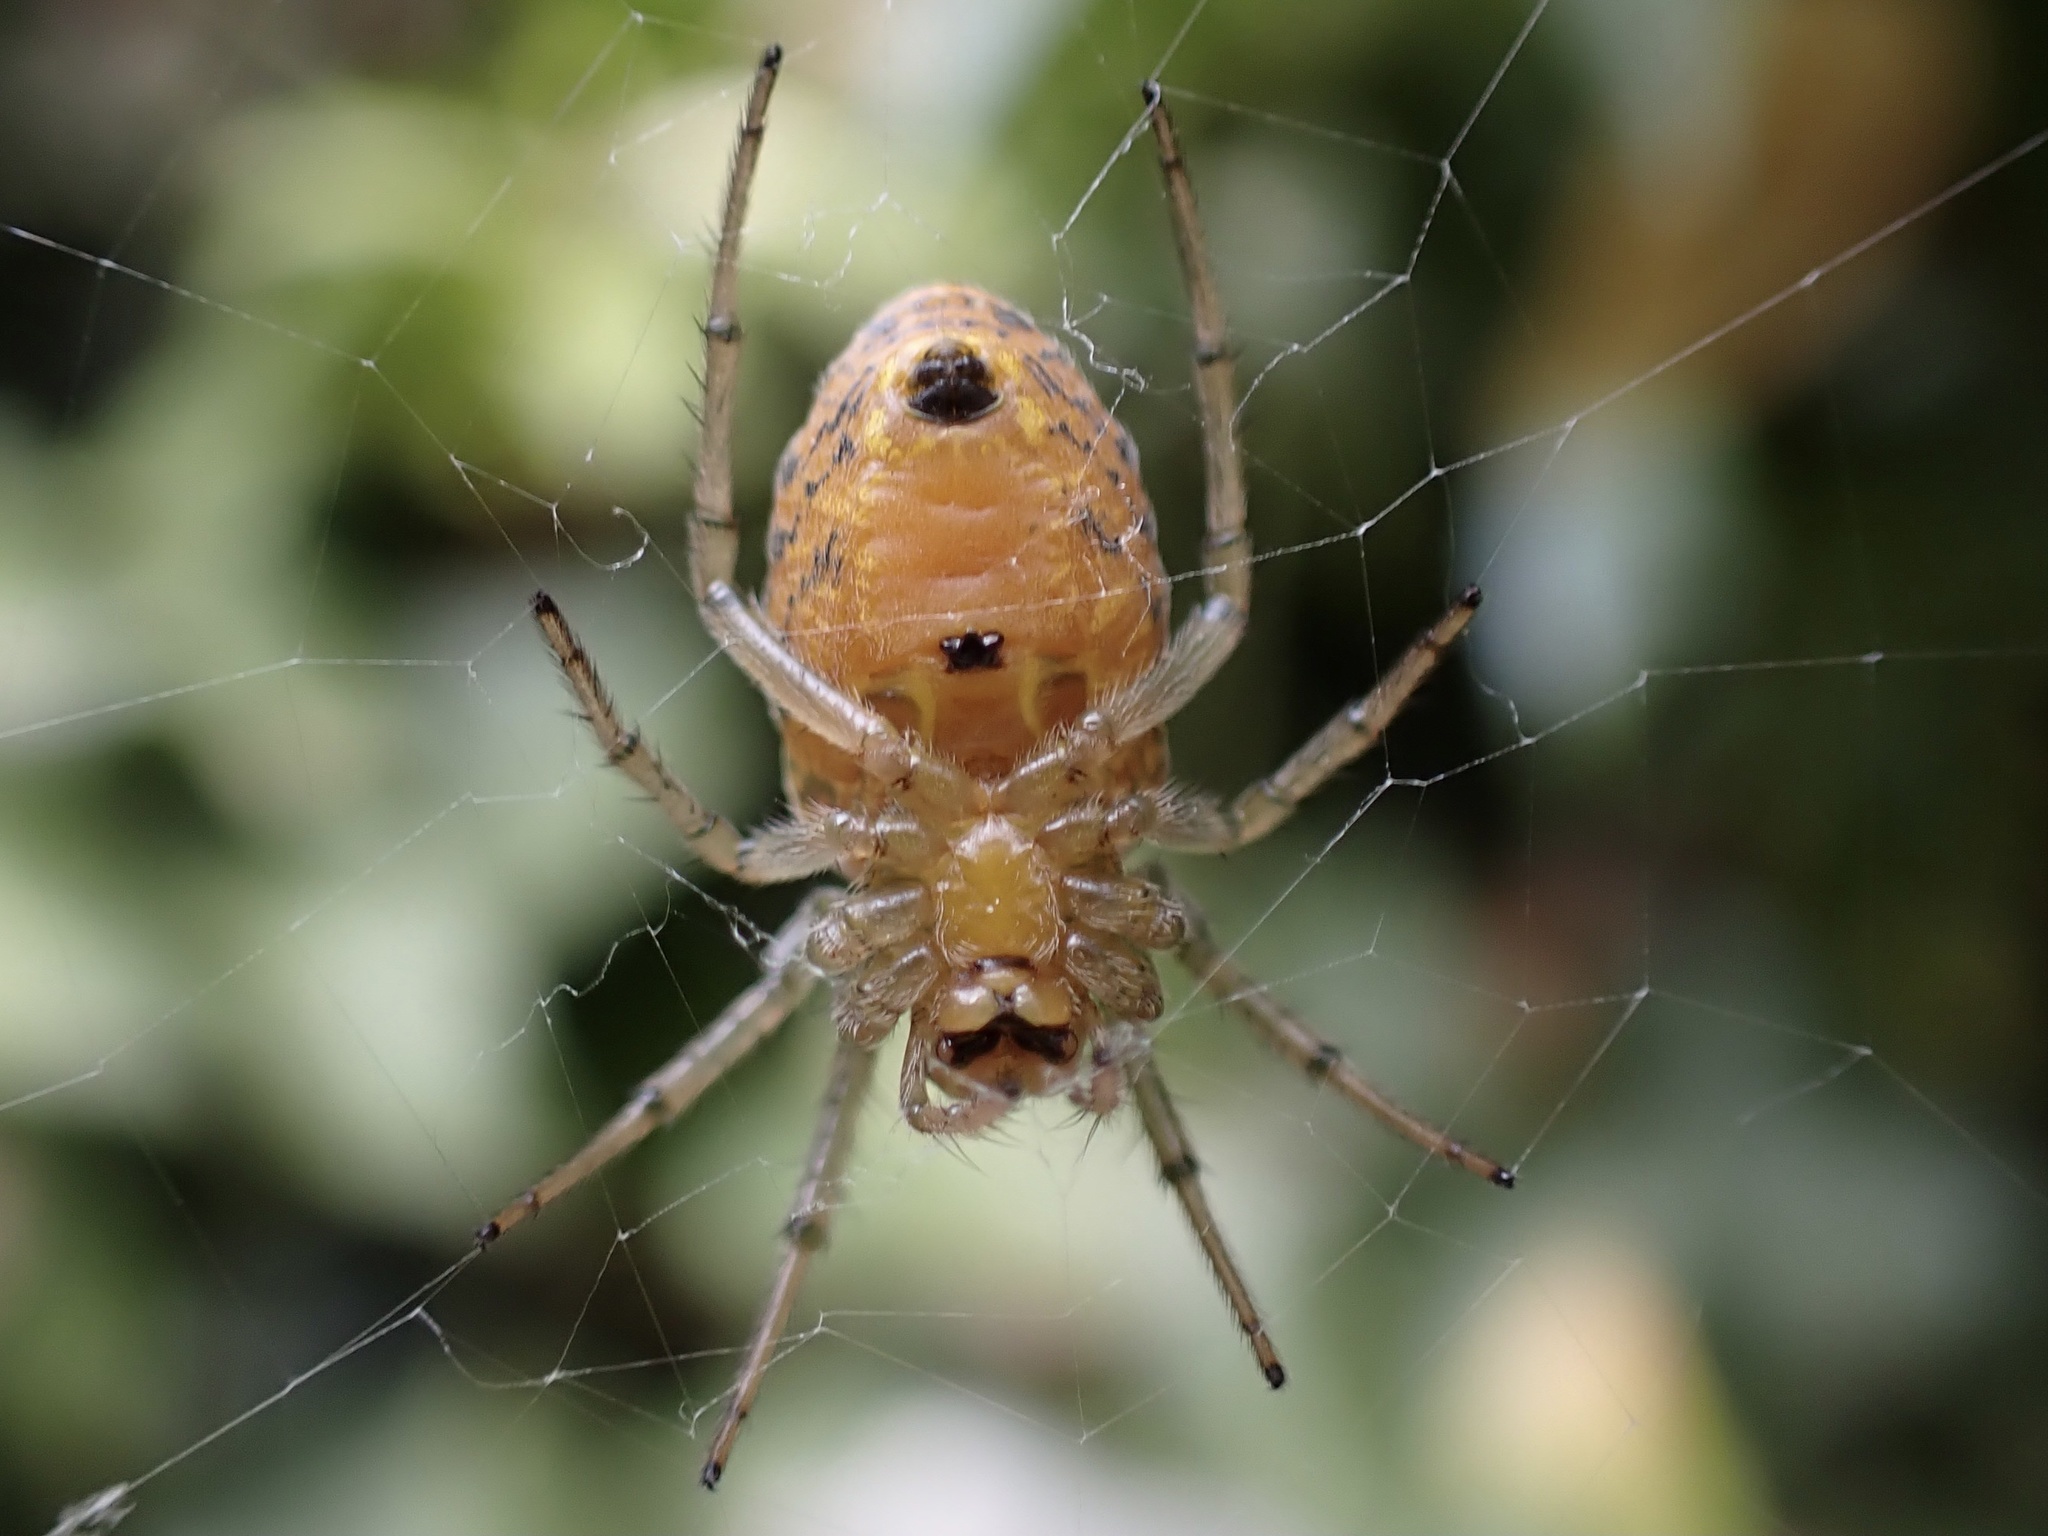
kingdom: Animalia
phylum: Arthropoda
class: Arachnida
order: Araneae
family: Araneidae
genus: Alpaida
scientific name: Alpaida nancho
